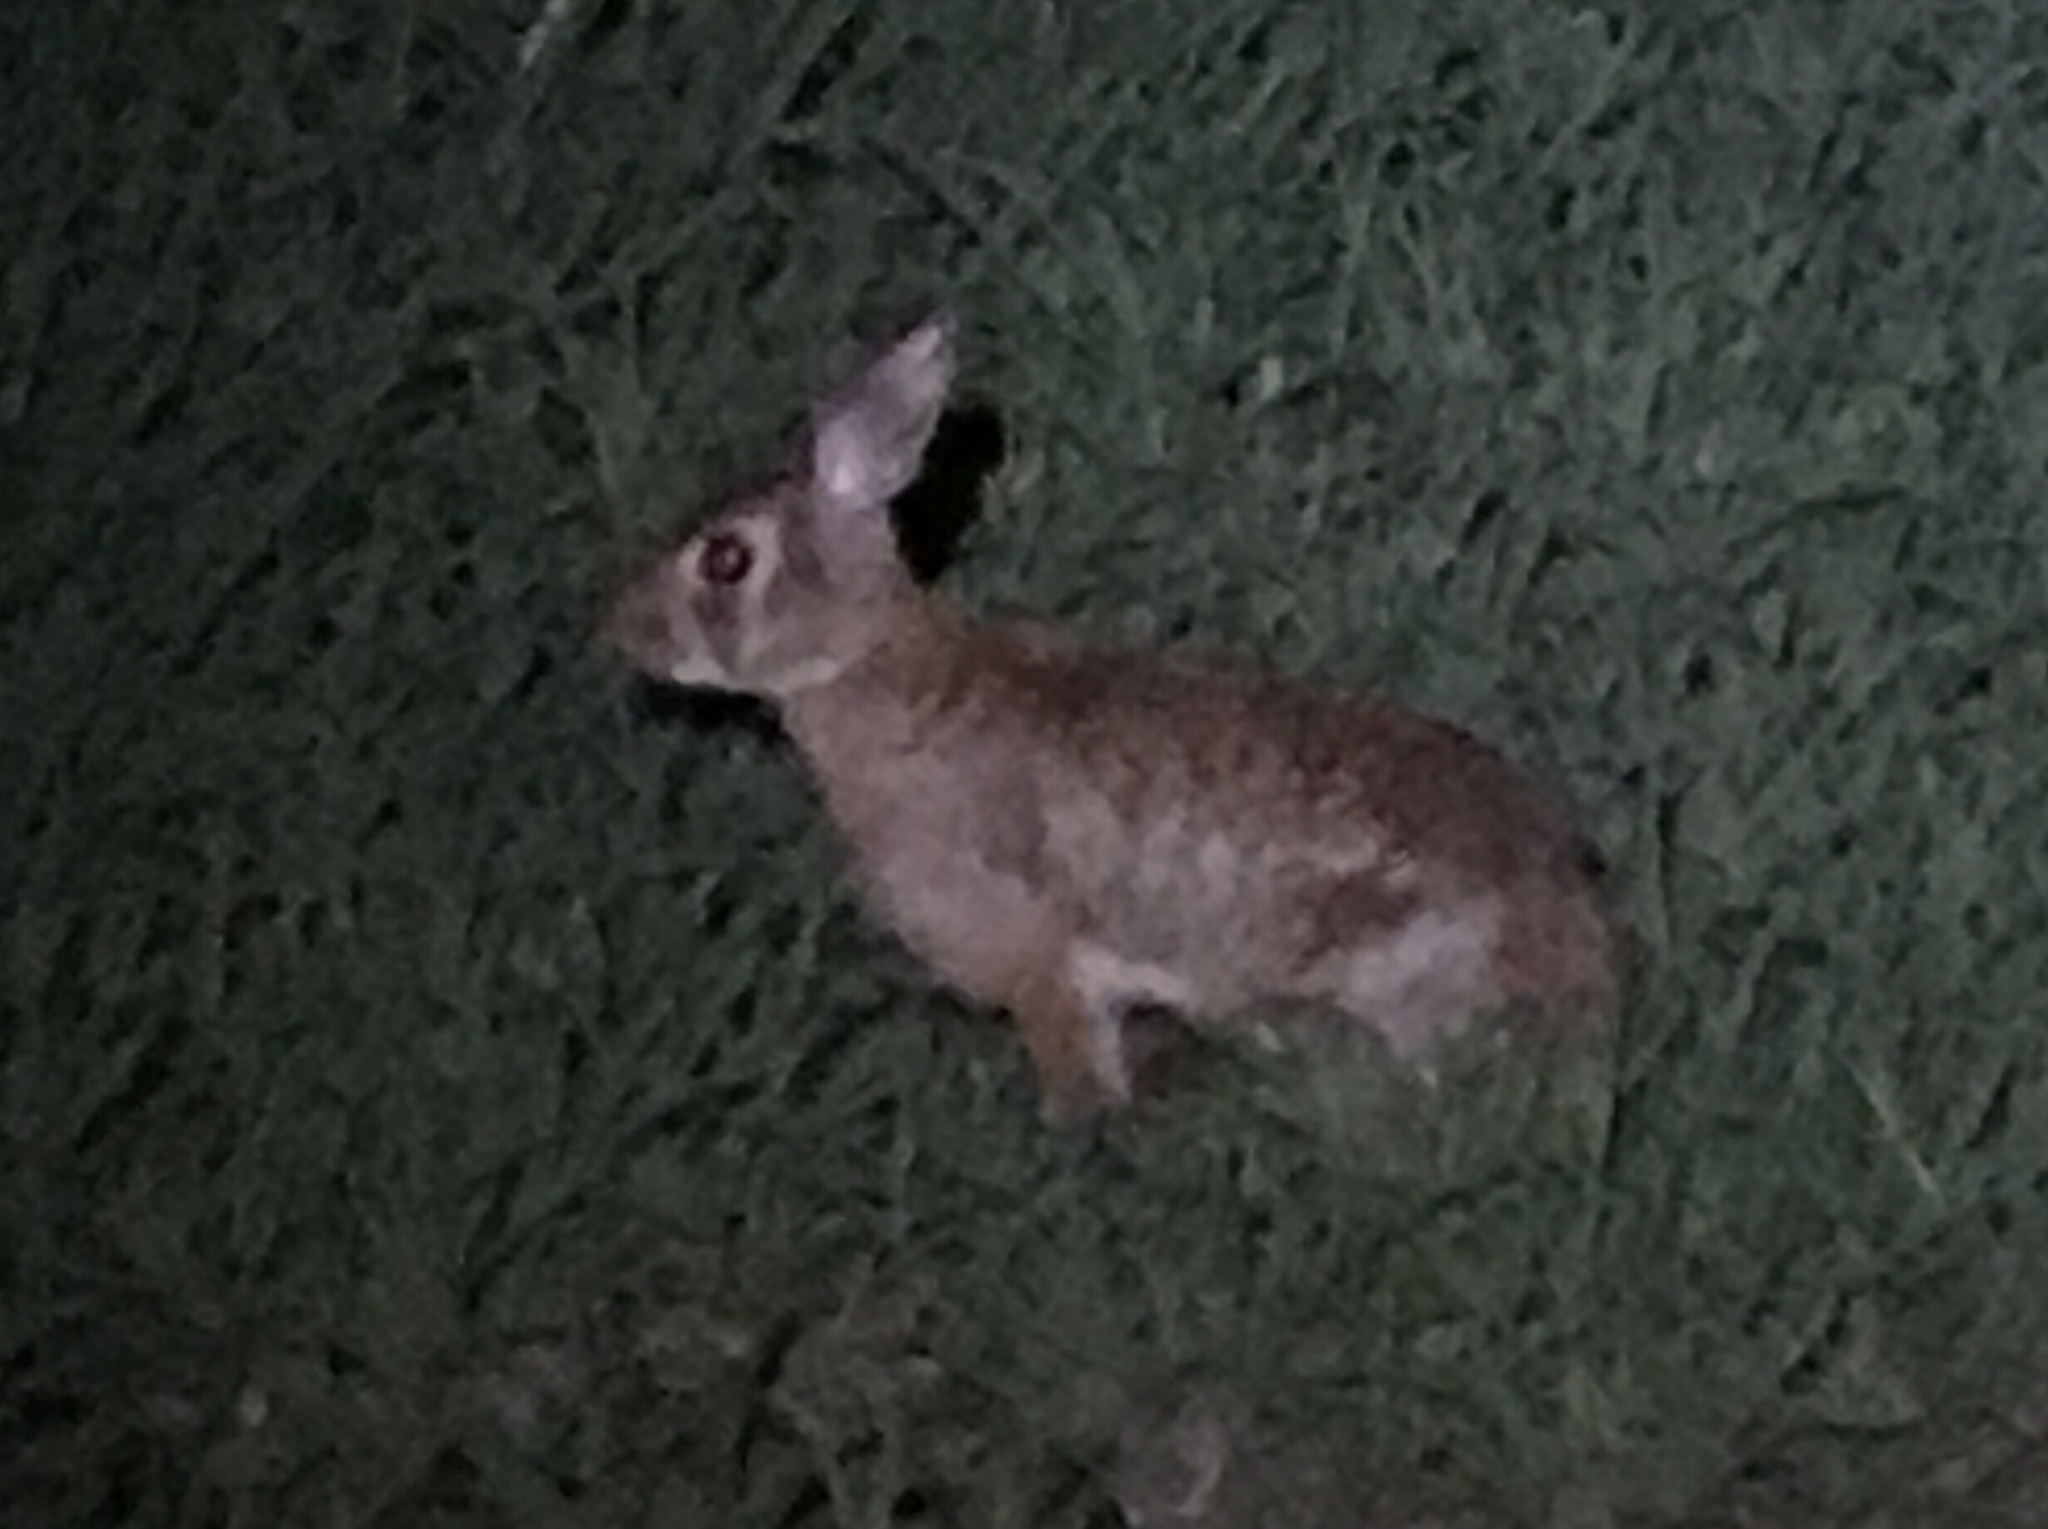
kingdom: Animalia
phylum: Chordata
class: Mammalia
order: Lagomorpha
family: Leporidae
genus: Sylvilagus
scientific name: Sylvilagus floridanus
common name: Eastern cottontail
